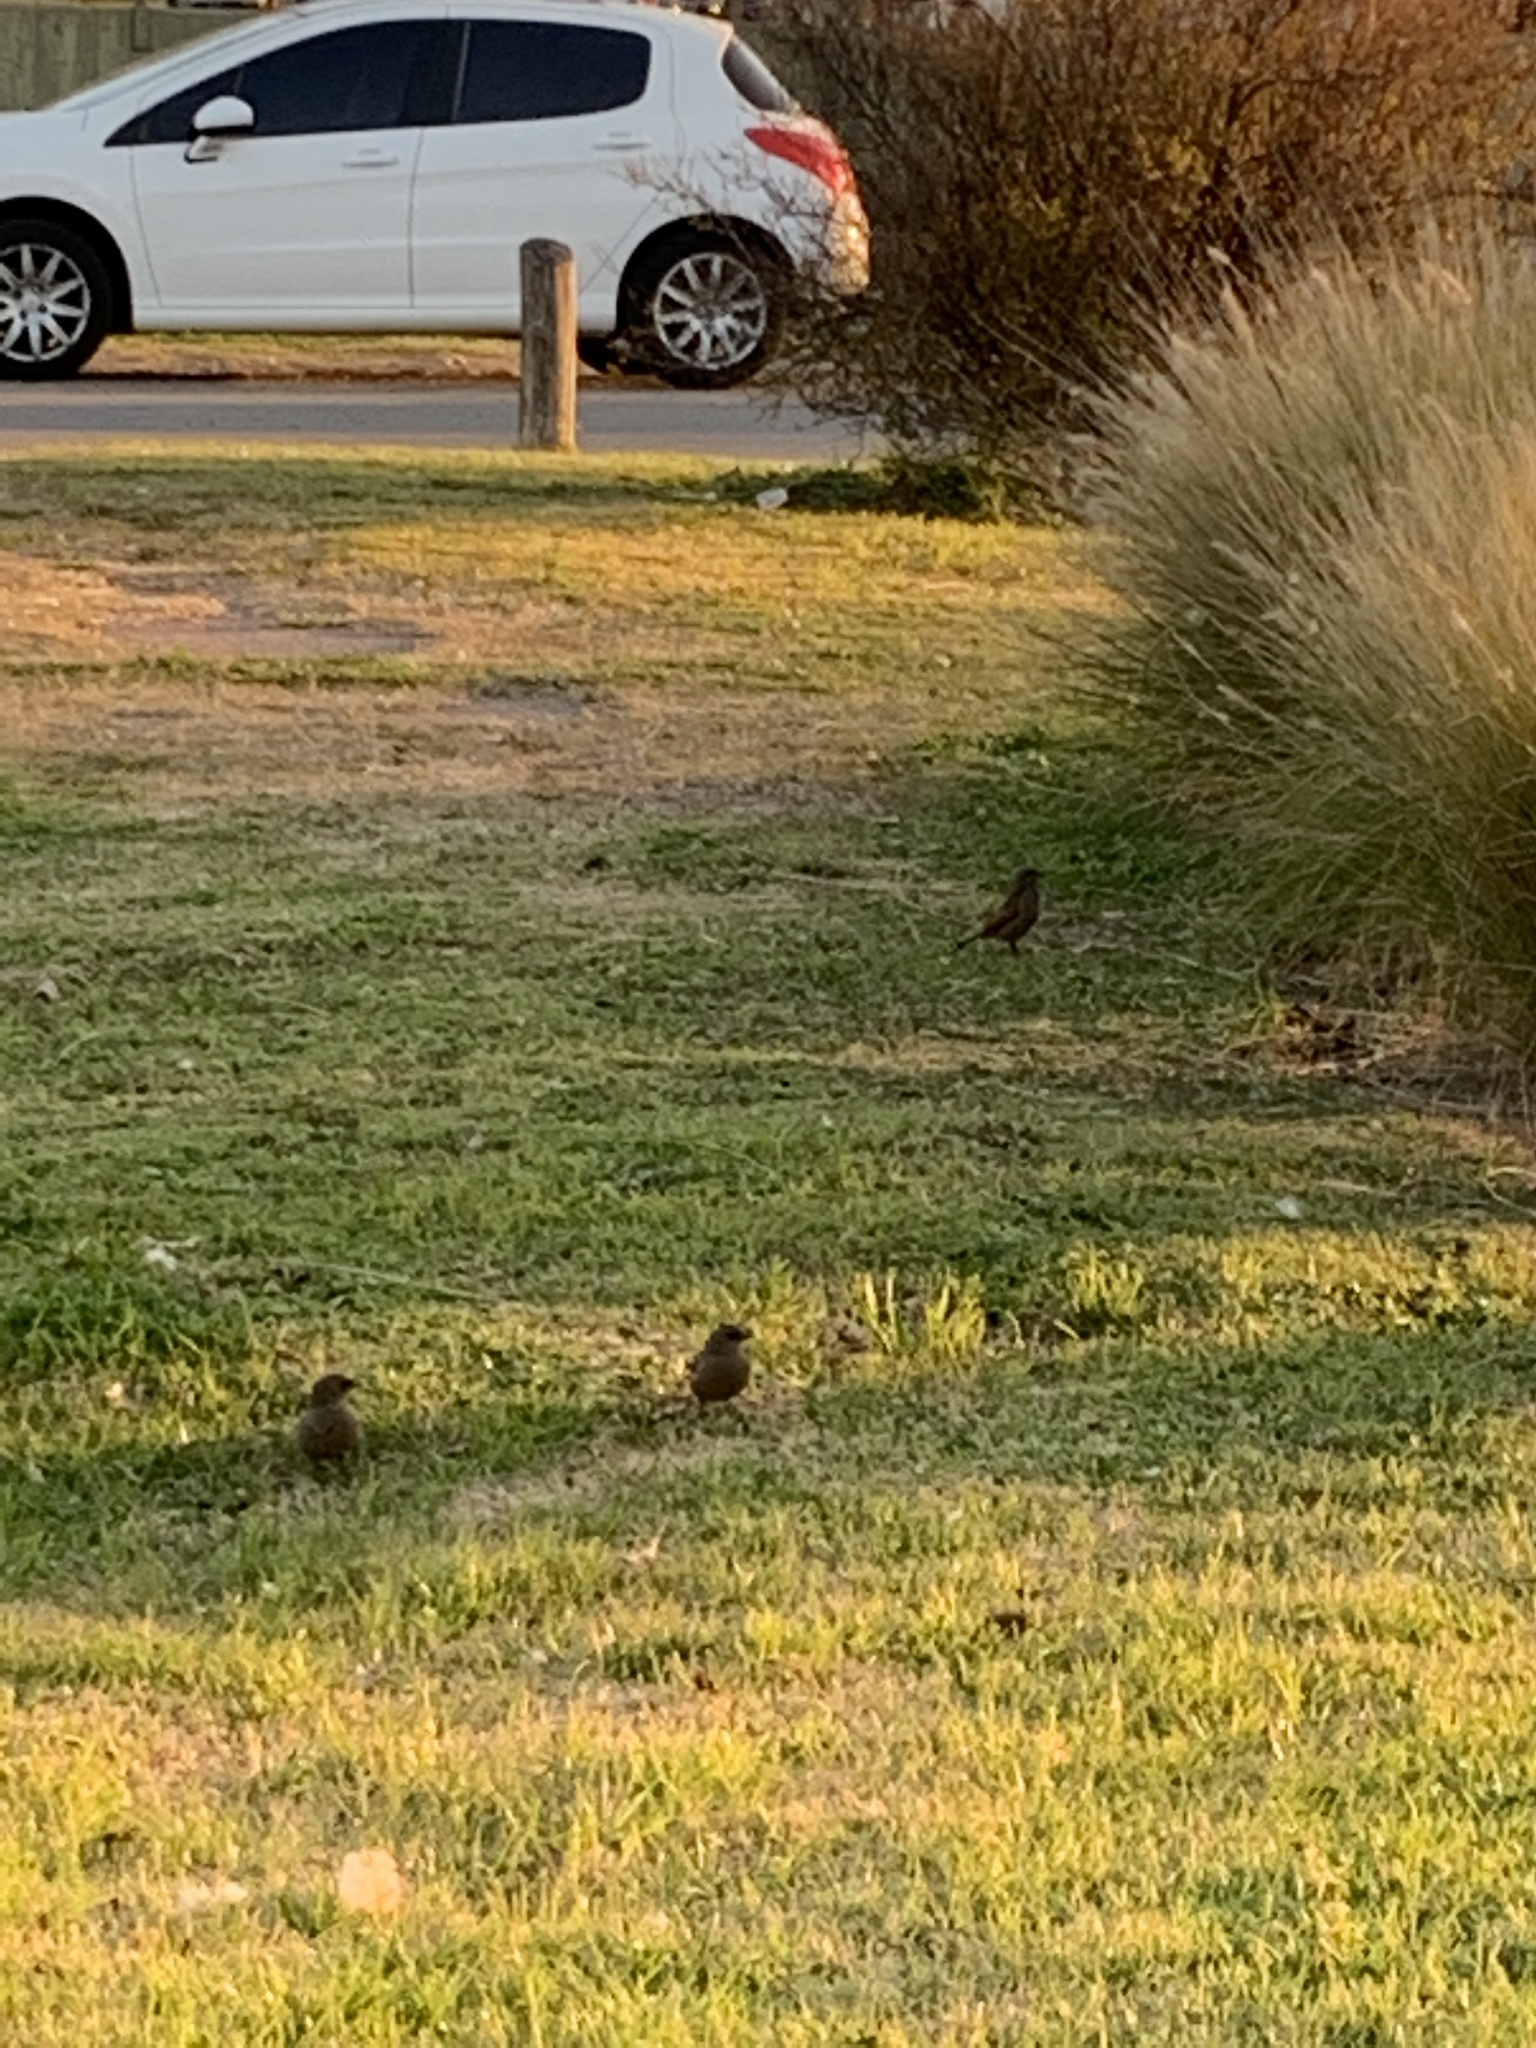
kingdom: Animalia
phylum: Chordata
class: Aves
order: Passeriformes
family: Icteridae
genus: Agelaioides
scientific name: Agelaioides badius
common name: Baywing
